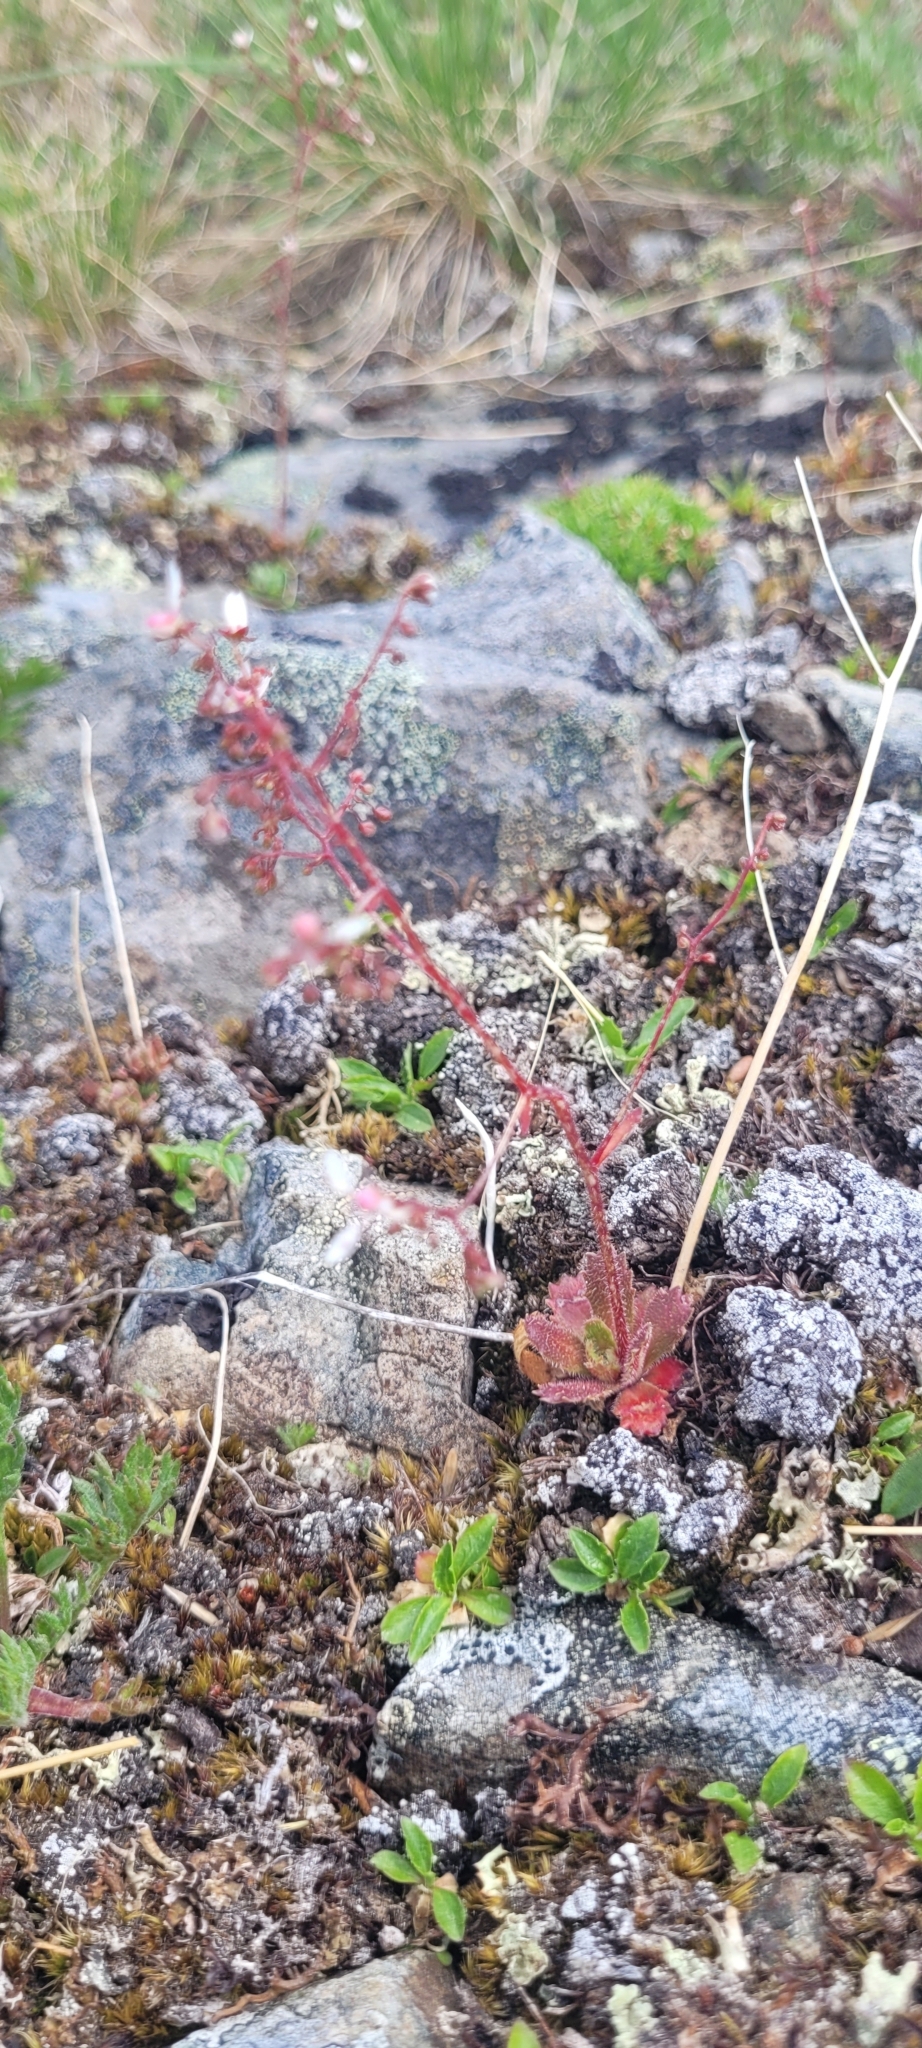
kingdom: Plantae
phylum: Tracheophyta
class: Magnoliopsida
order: Saxifragales
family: Saxifragaceae
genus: Micranthes
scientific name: Micranthes ferruginea
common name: Rusty saxifrage
